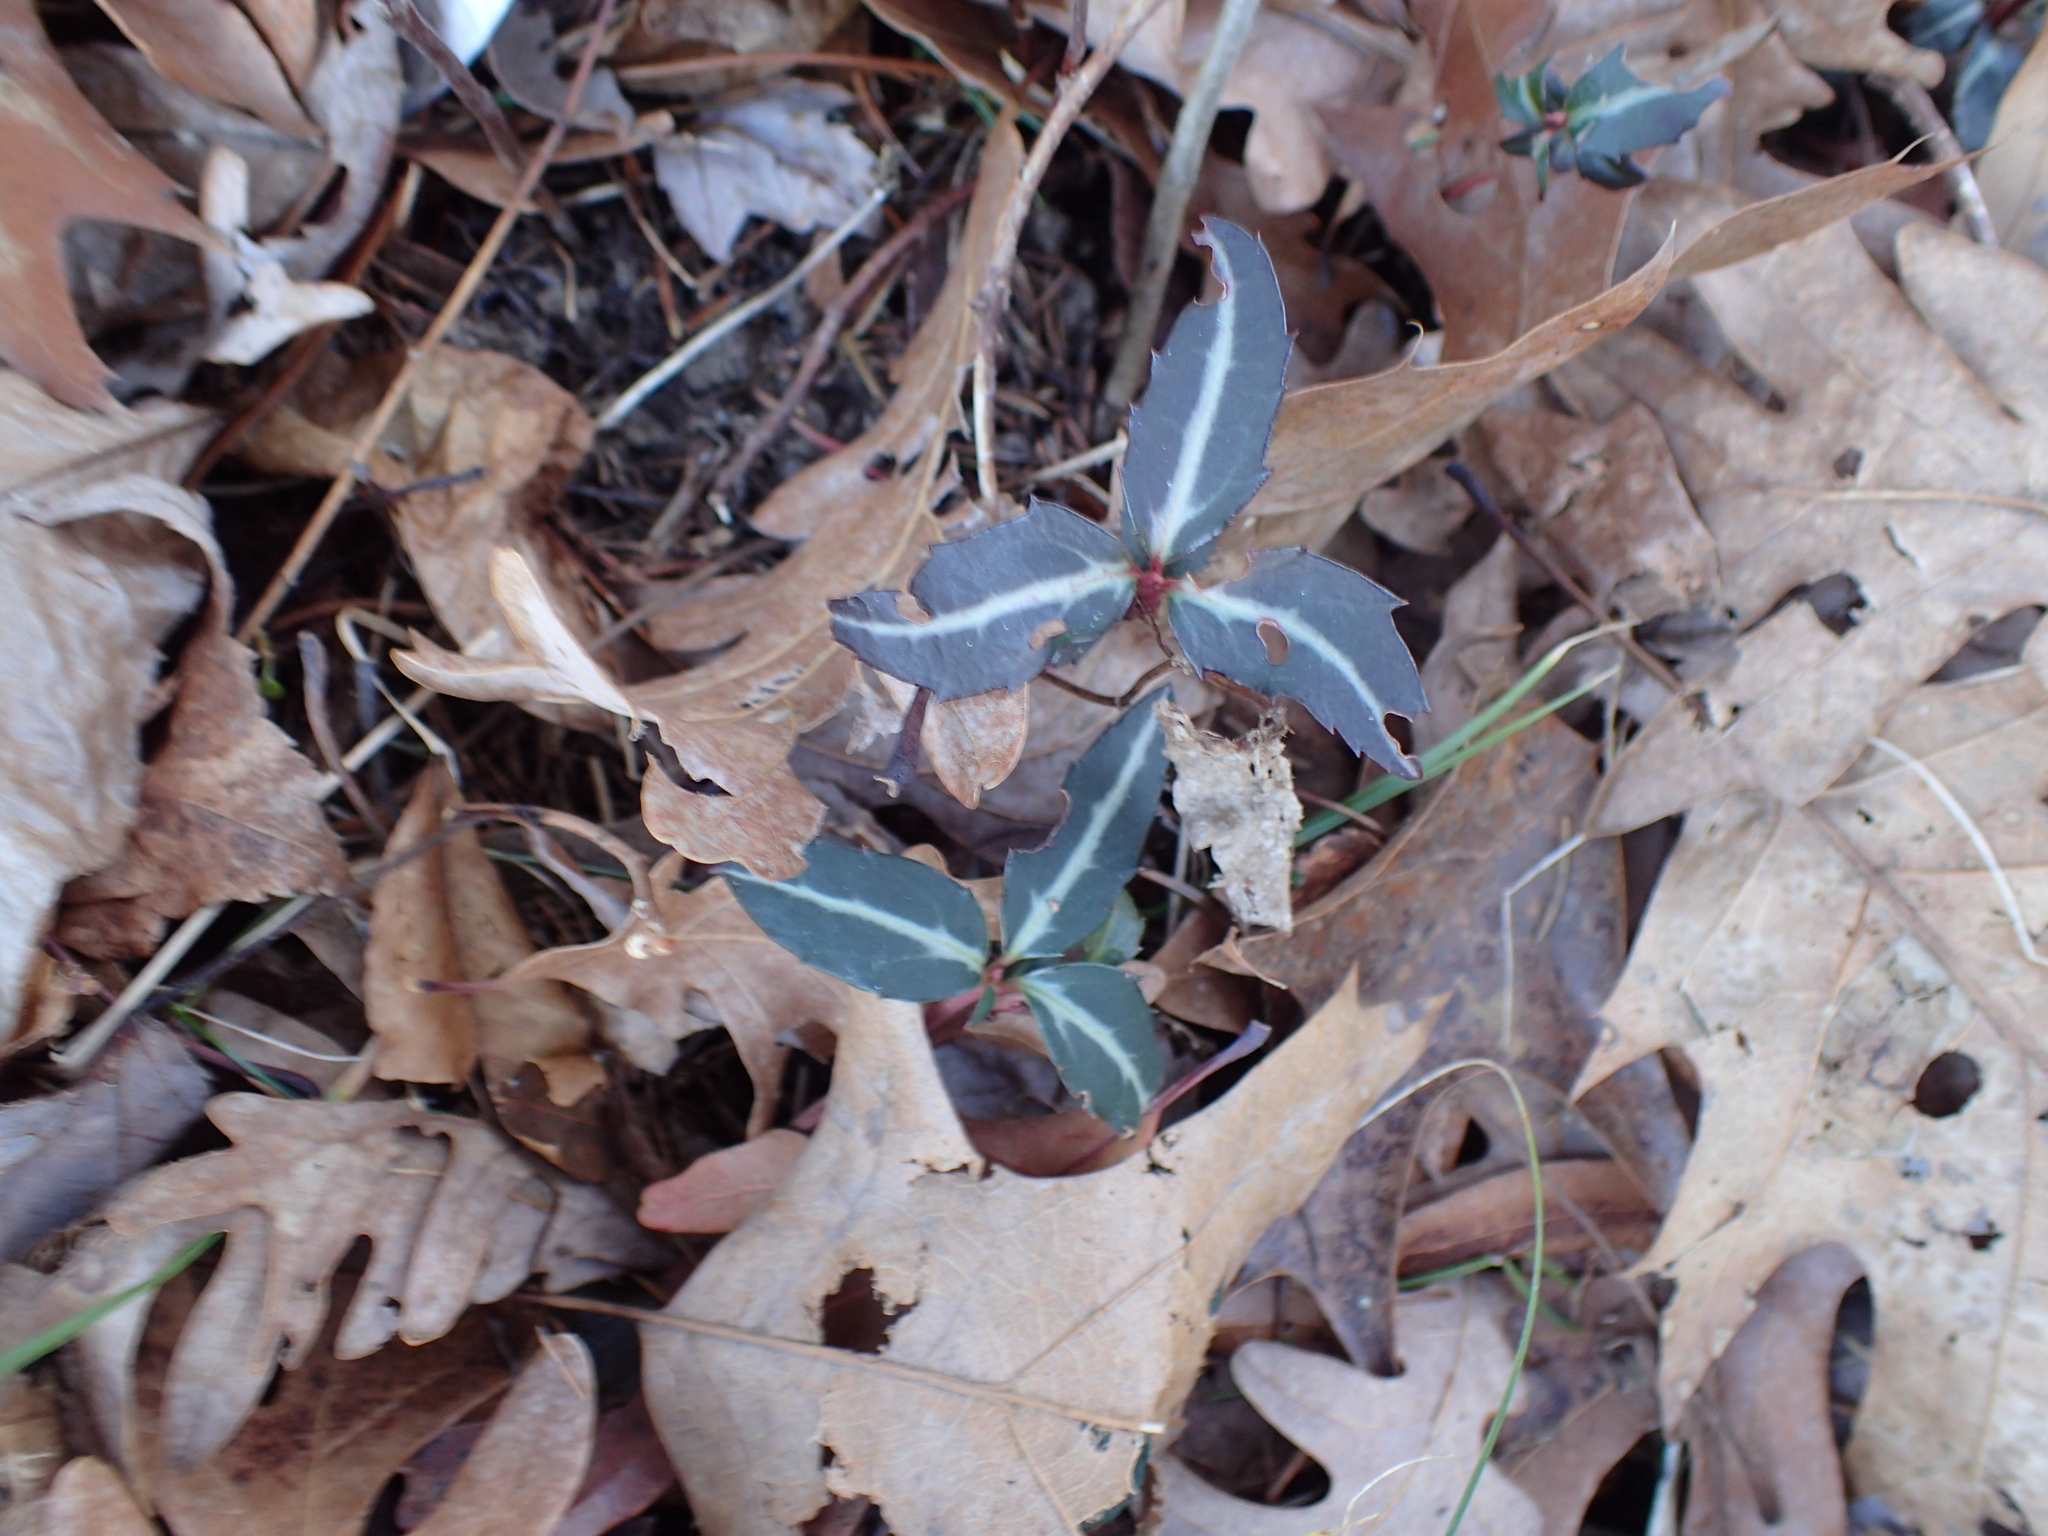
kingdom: Plantae
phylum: Tracheophyta
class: Magnoliopsida
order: Ericales
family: Ericaceae
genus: Chimaphila
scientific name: Chimaphila maculata
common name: Spotted pipsissewa
